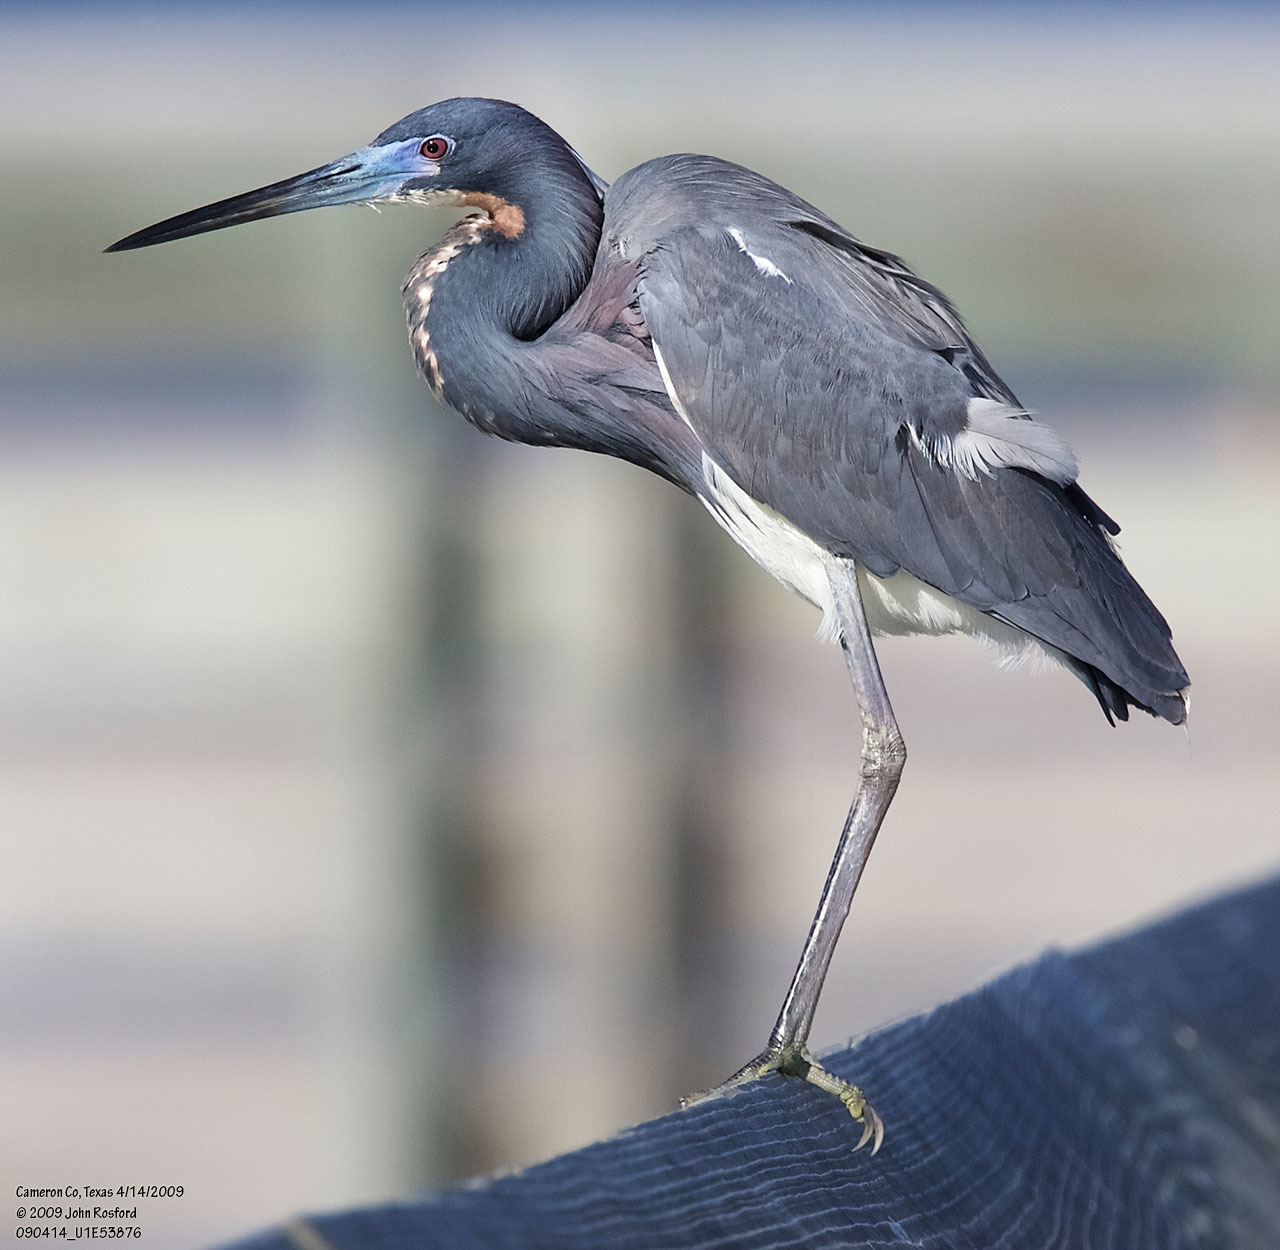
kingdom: Animalia
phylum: Chordata
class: Aves
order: Pelecaniformes
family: Ardeidae
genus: Egretta
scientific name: Egretta tricolor
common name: Tricolored heron
